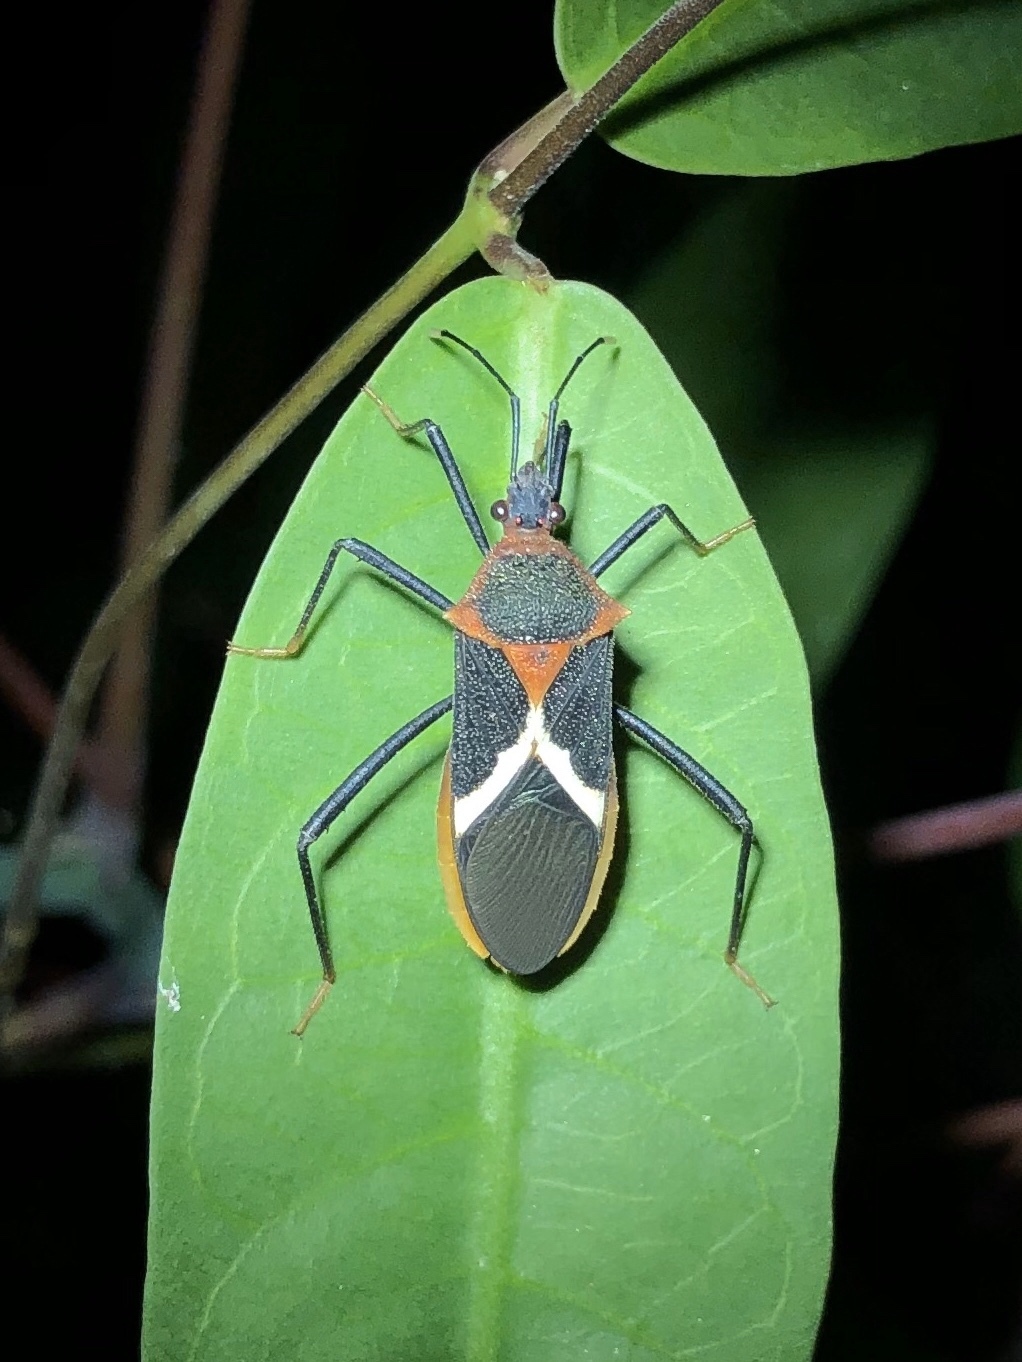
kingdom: Animalia
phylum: Arthropoda
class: Insecta
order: Hemiptera
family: Coreidae
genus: Leptoscelis
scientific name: Leptoscelis tricolor
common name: Heliconia bug
